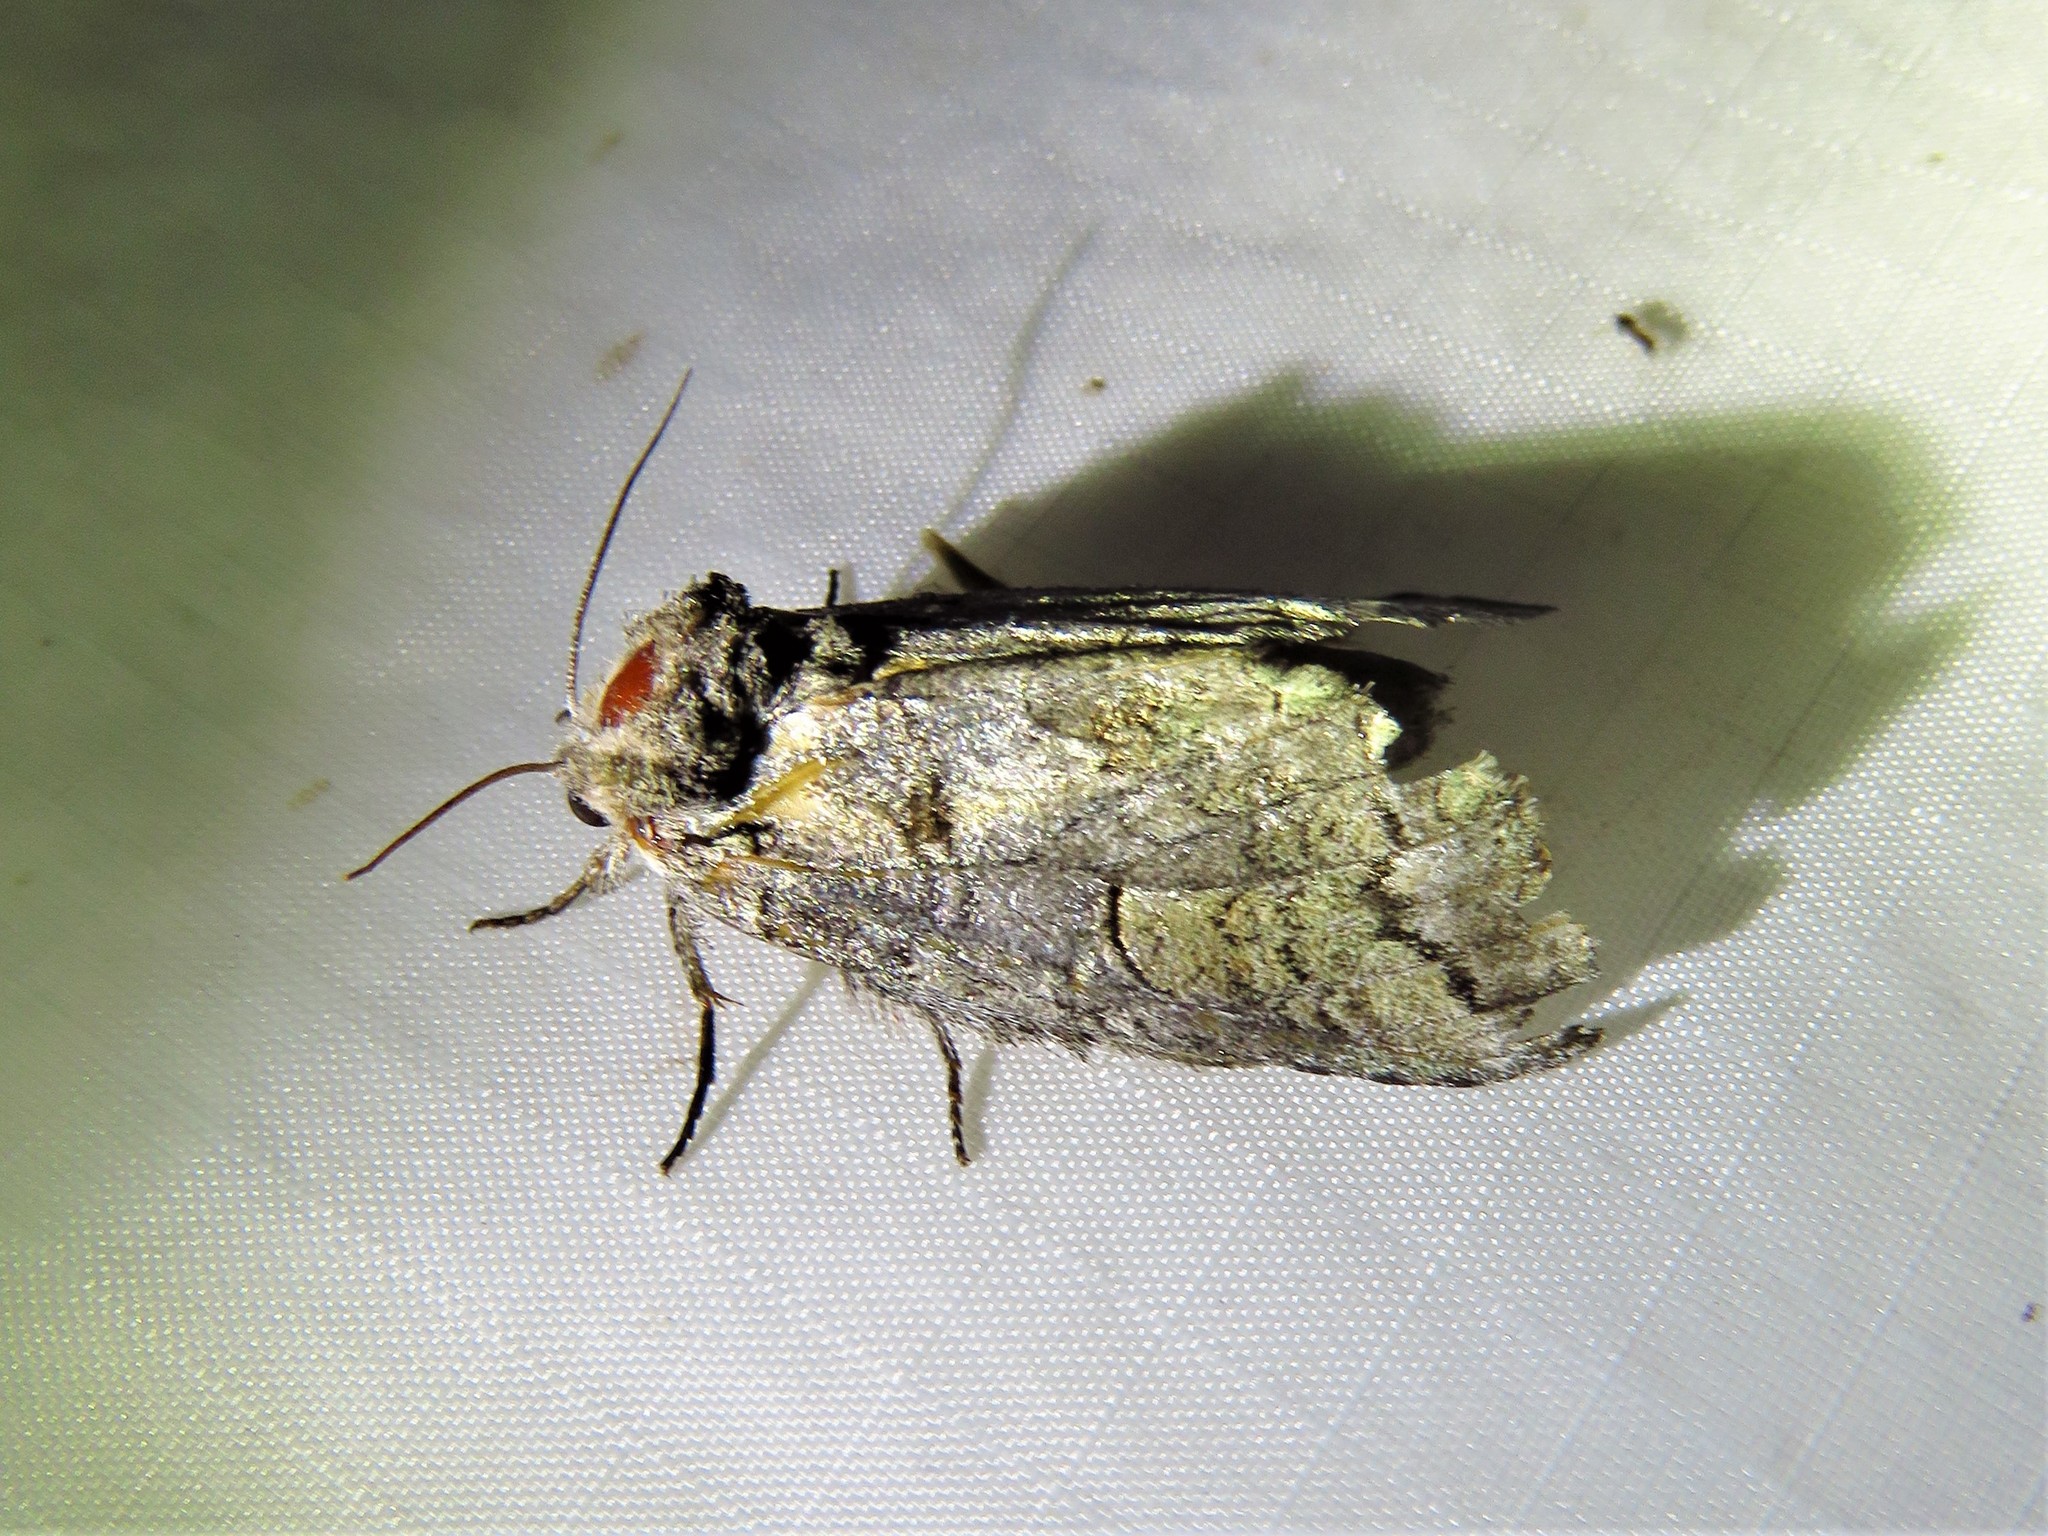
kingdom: Animalia
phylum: Arthropoda
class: Insecta
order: Lepidoptera
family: Notodontidae
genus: Heterocampa
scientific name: Heterocampa astartoides
